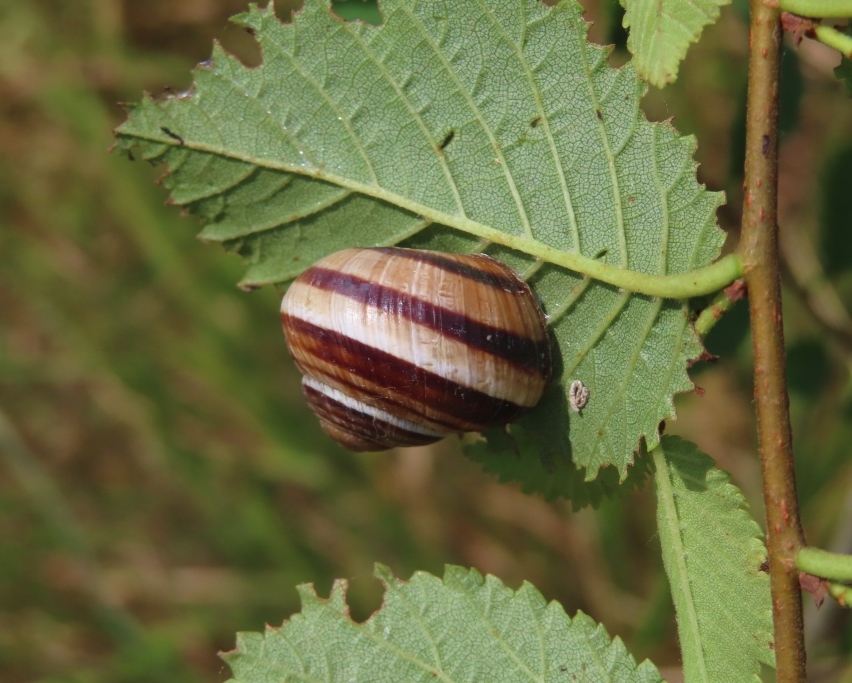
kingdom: Animalia
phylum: Mollusca
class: Gastropoda
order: Stylommatophora
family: Helicidae
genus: Helix
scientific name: Helix lucorum
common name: Turkish snail
